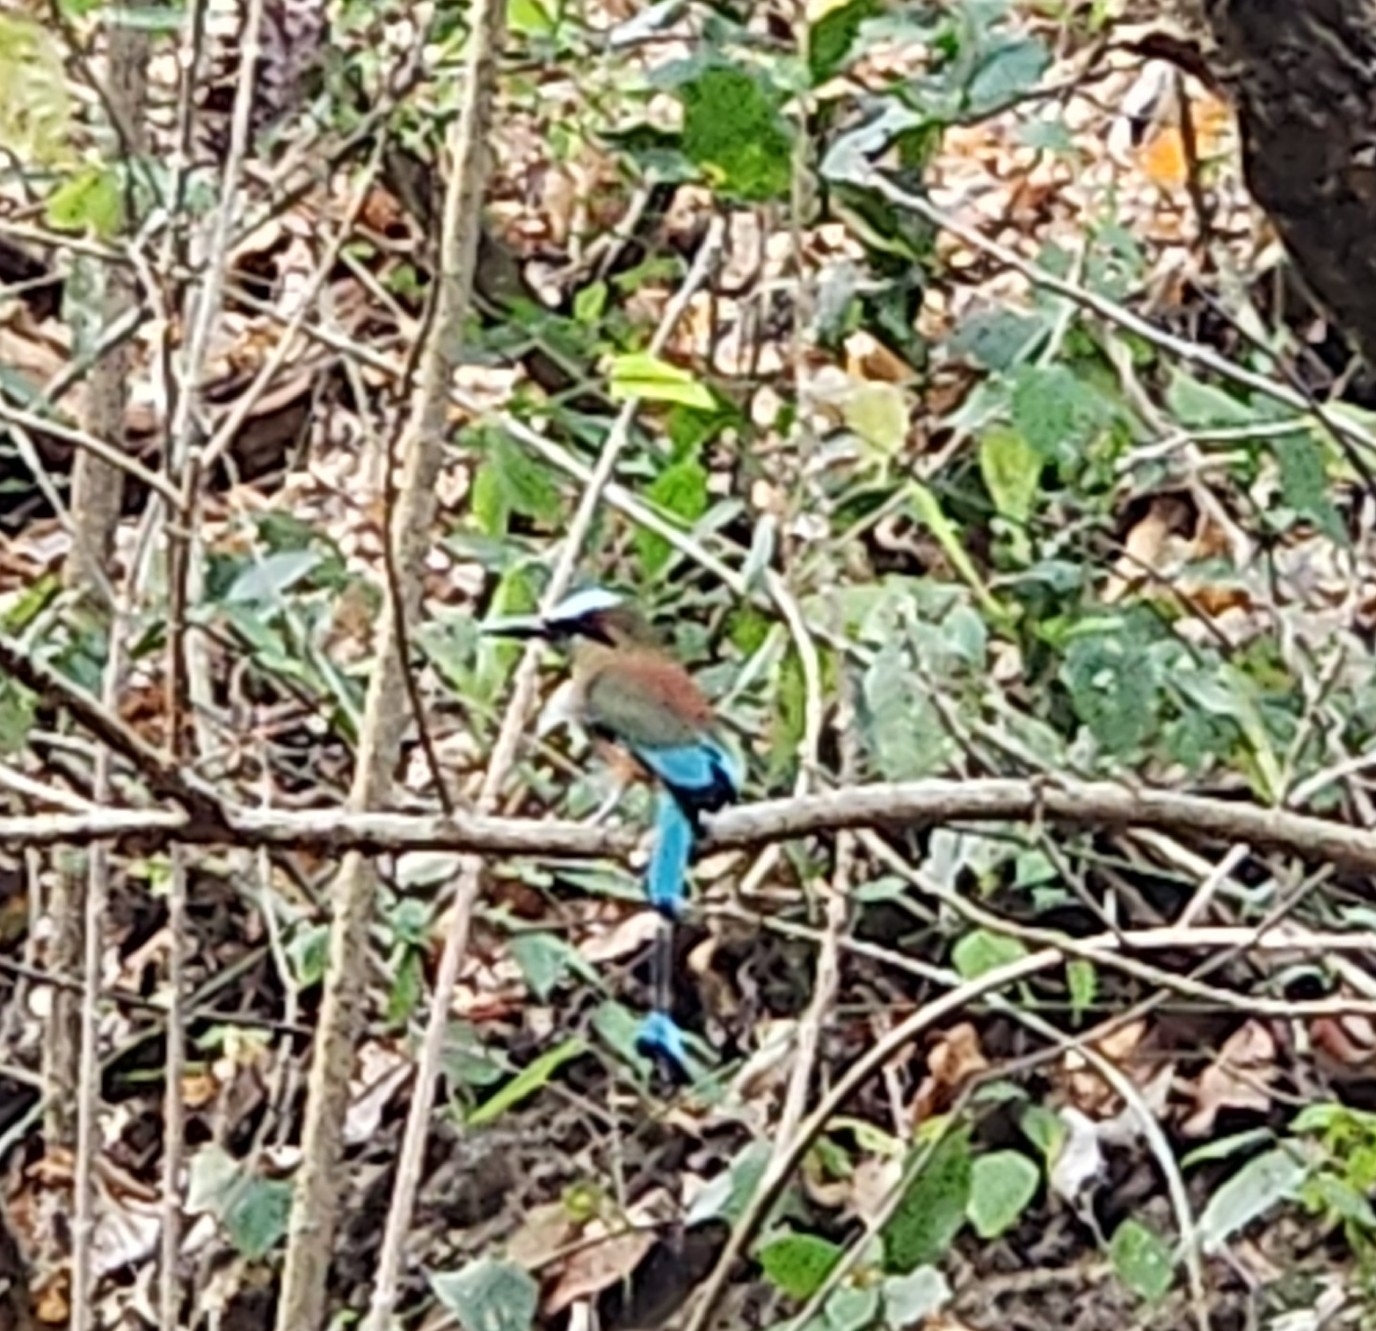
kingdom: Animalia
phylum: Chordata
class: Aves
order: Coraciiformes
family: Momotidae
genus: Eumomota
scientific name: Eumomota superciliosa
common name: Turquoise-browed motmot
